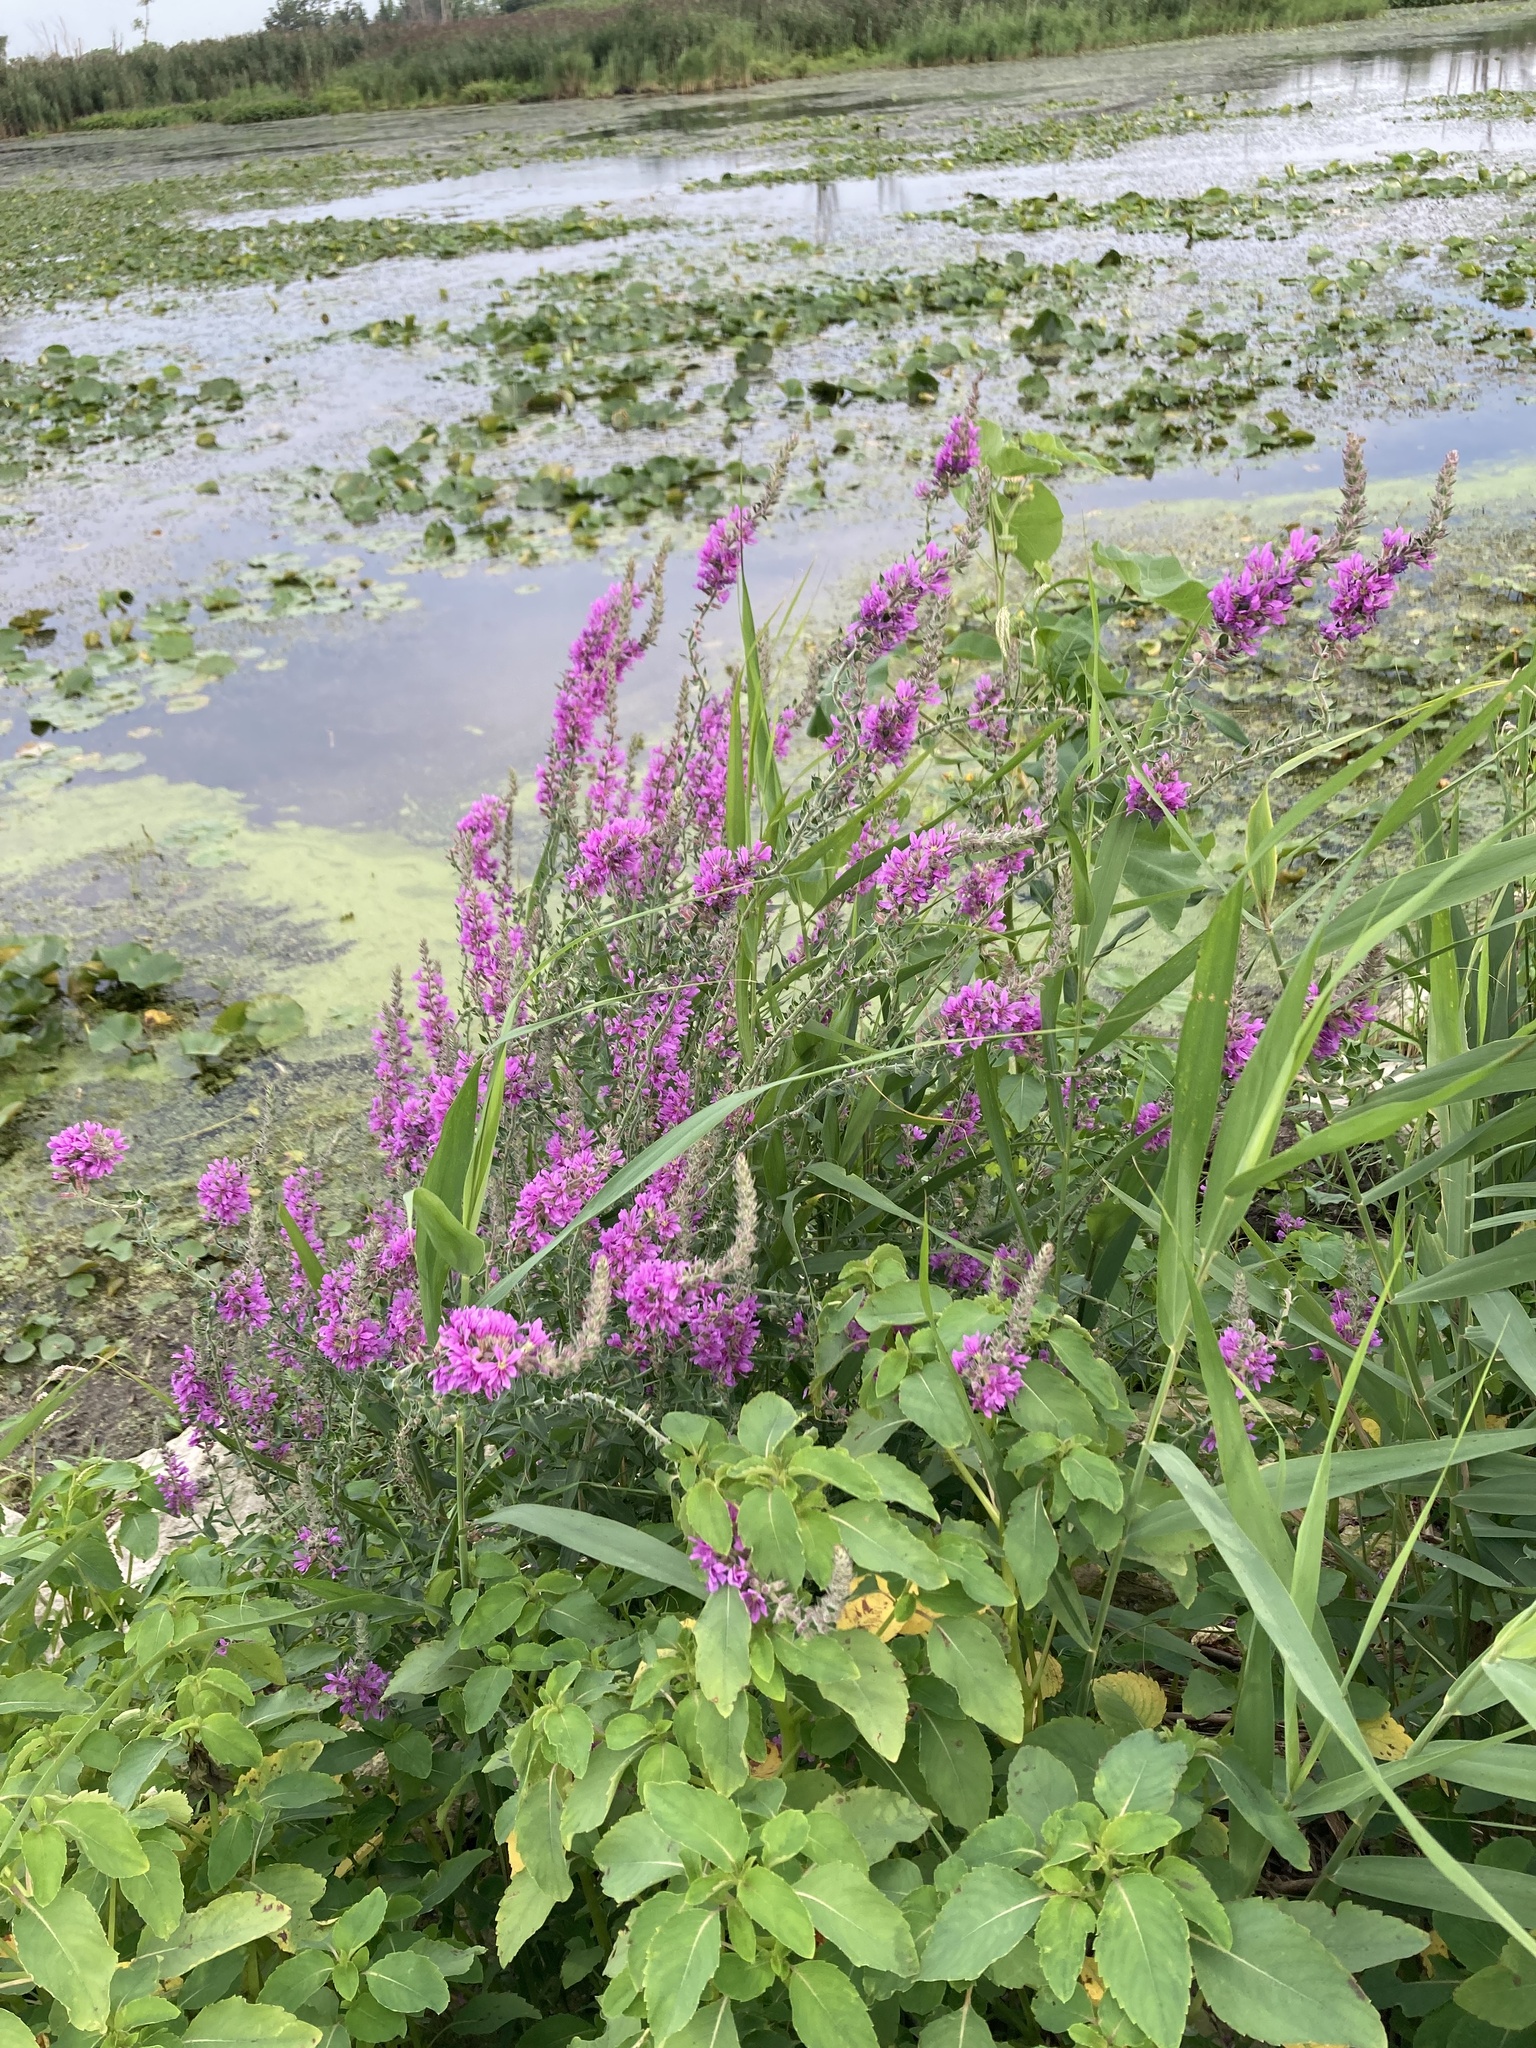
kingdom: Plantae
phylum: Tracheophyta
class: Magnoliopsida
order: Myrtales
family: Lythraceae
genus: Lythrum
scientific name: Lythrum salicaria
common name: Purple loosestrife
